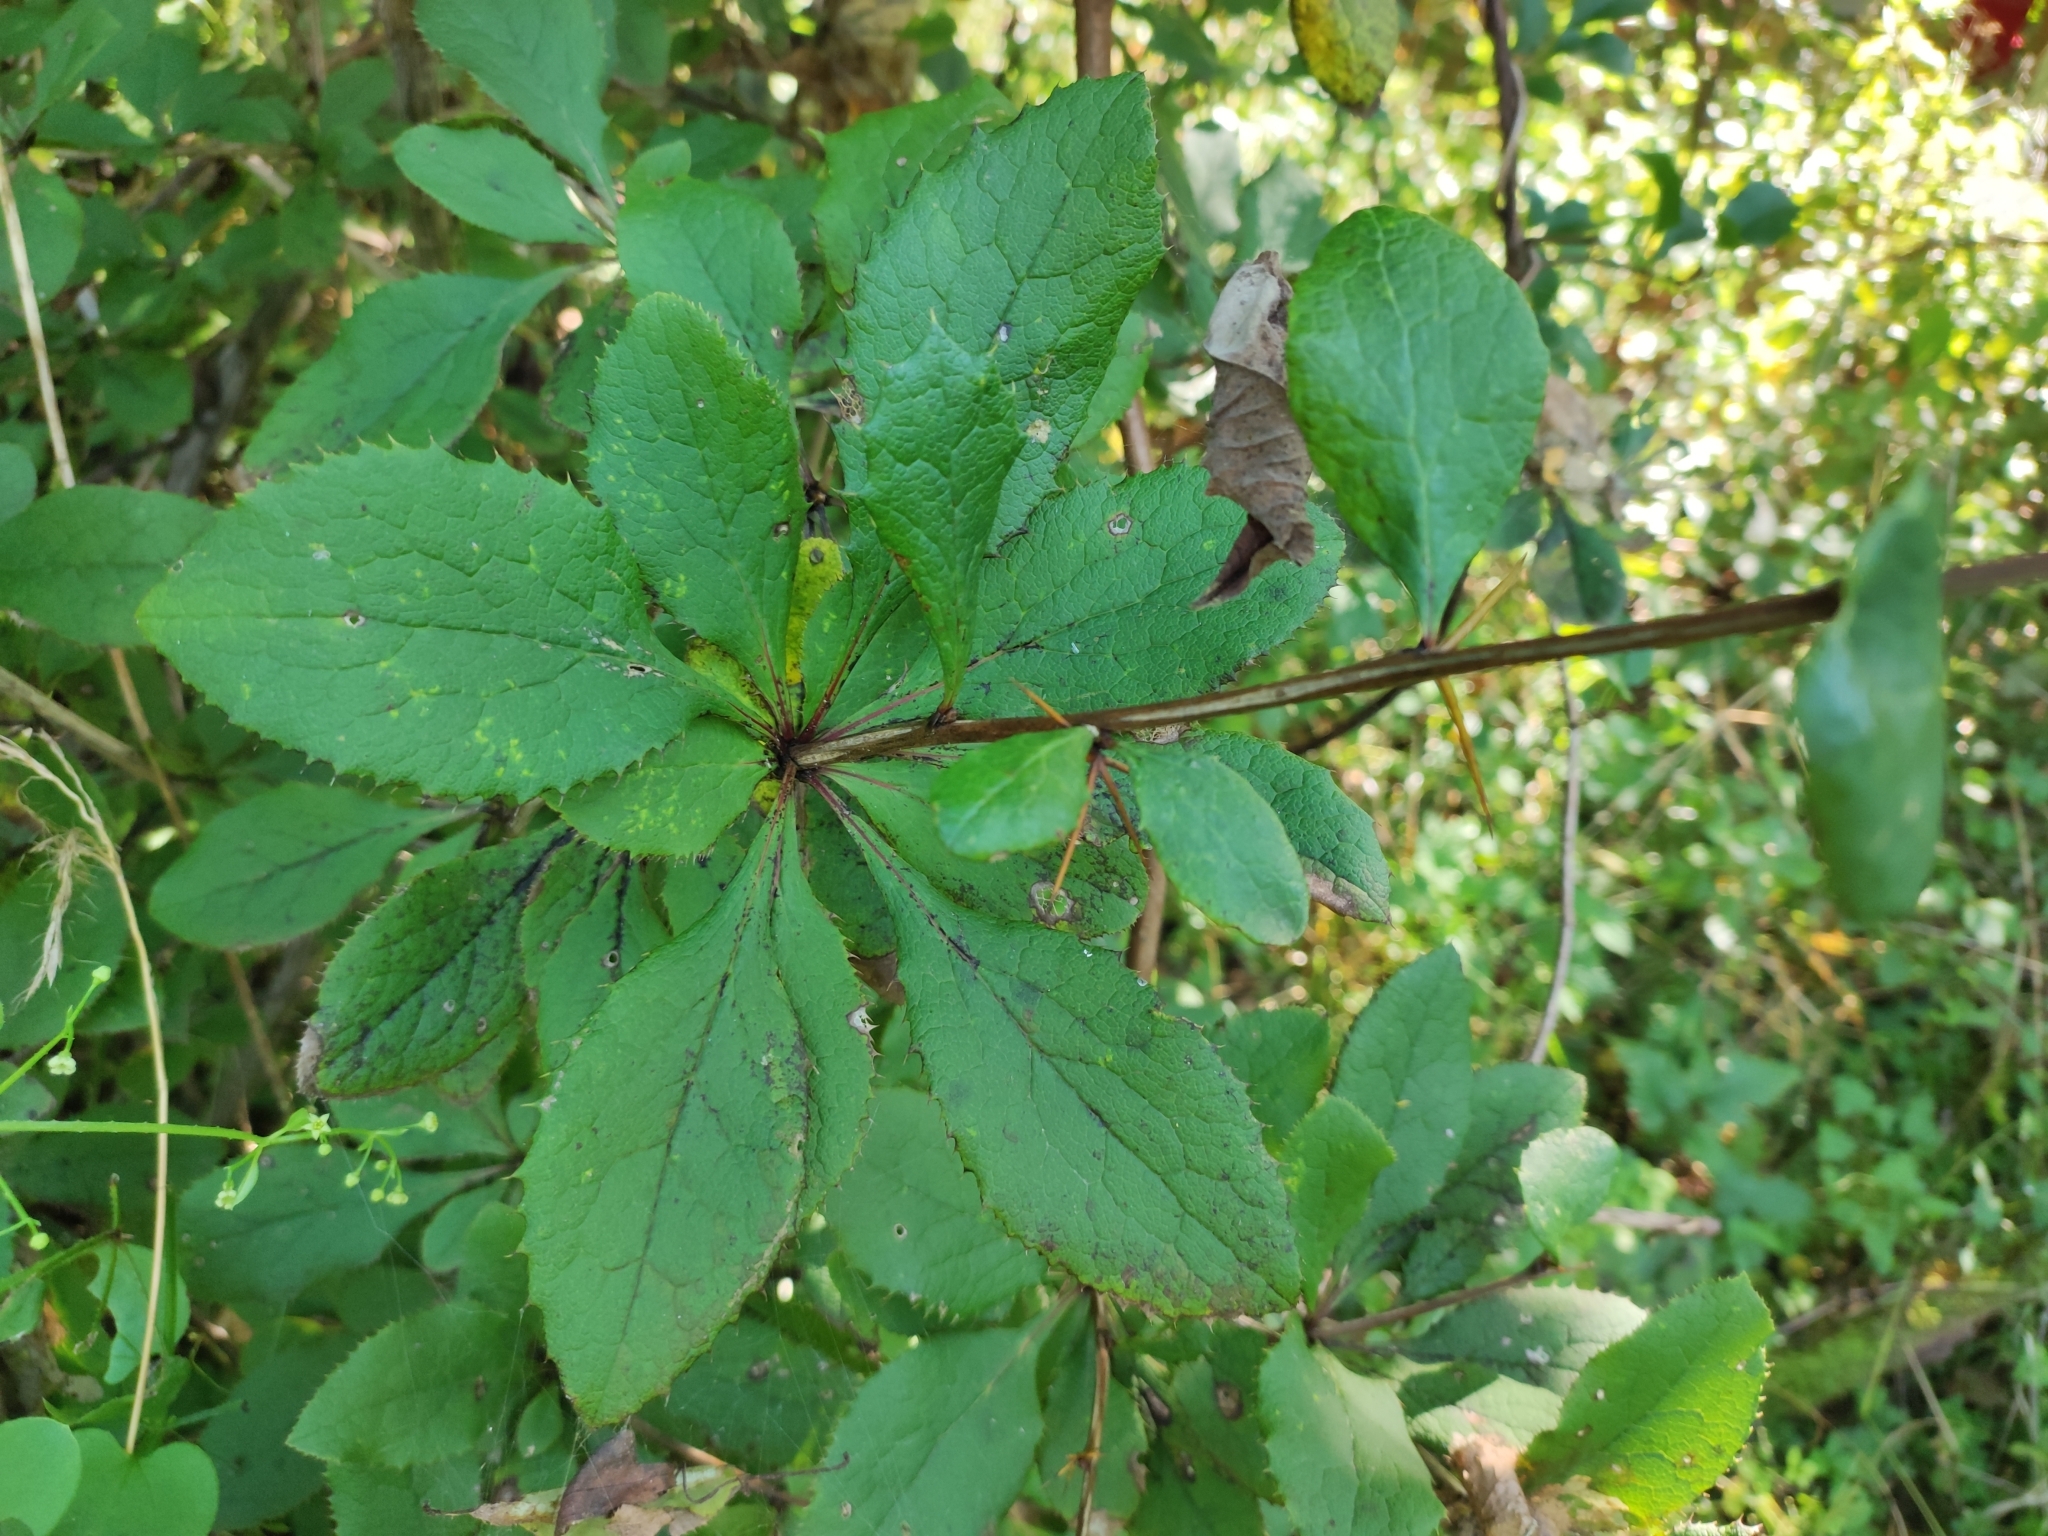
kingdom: Plantae
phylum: Tracheophyta
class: Magnoliopsida
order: Ranunculales
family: Berberidaceae
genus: Berberis
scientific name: Berberis amurensis
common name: Amur barberry
